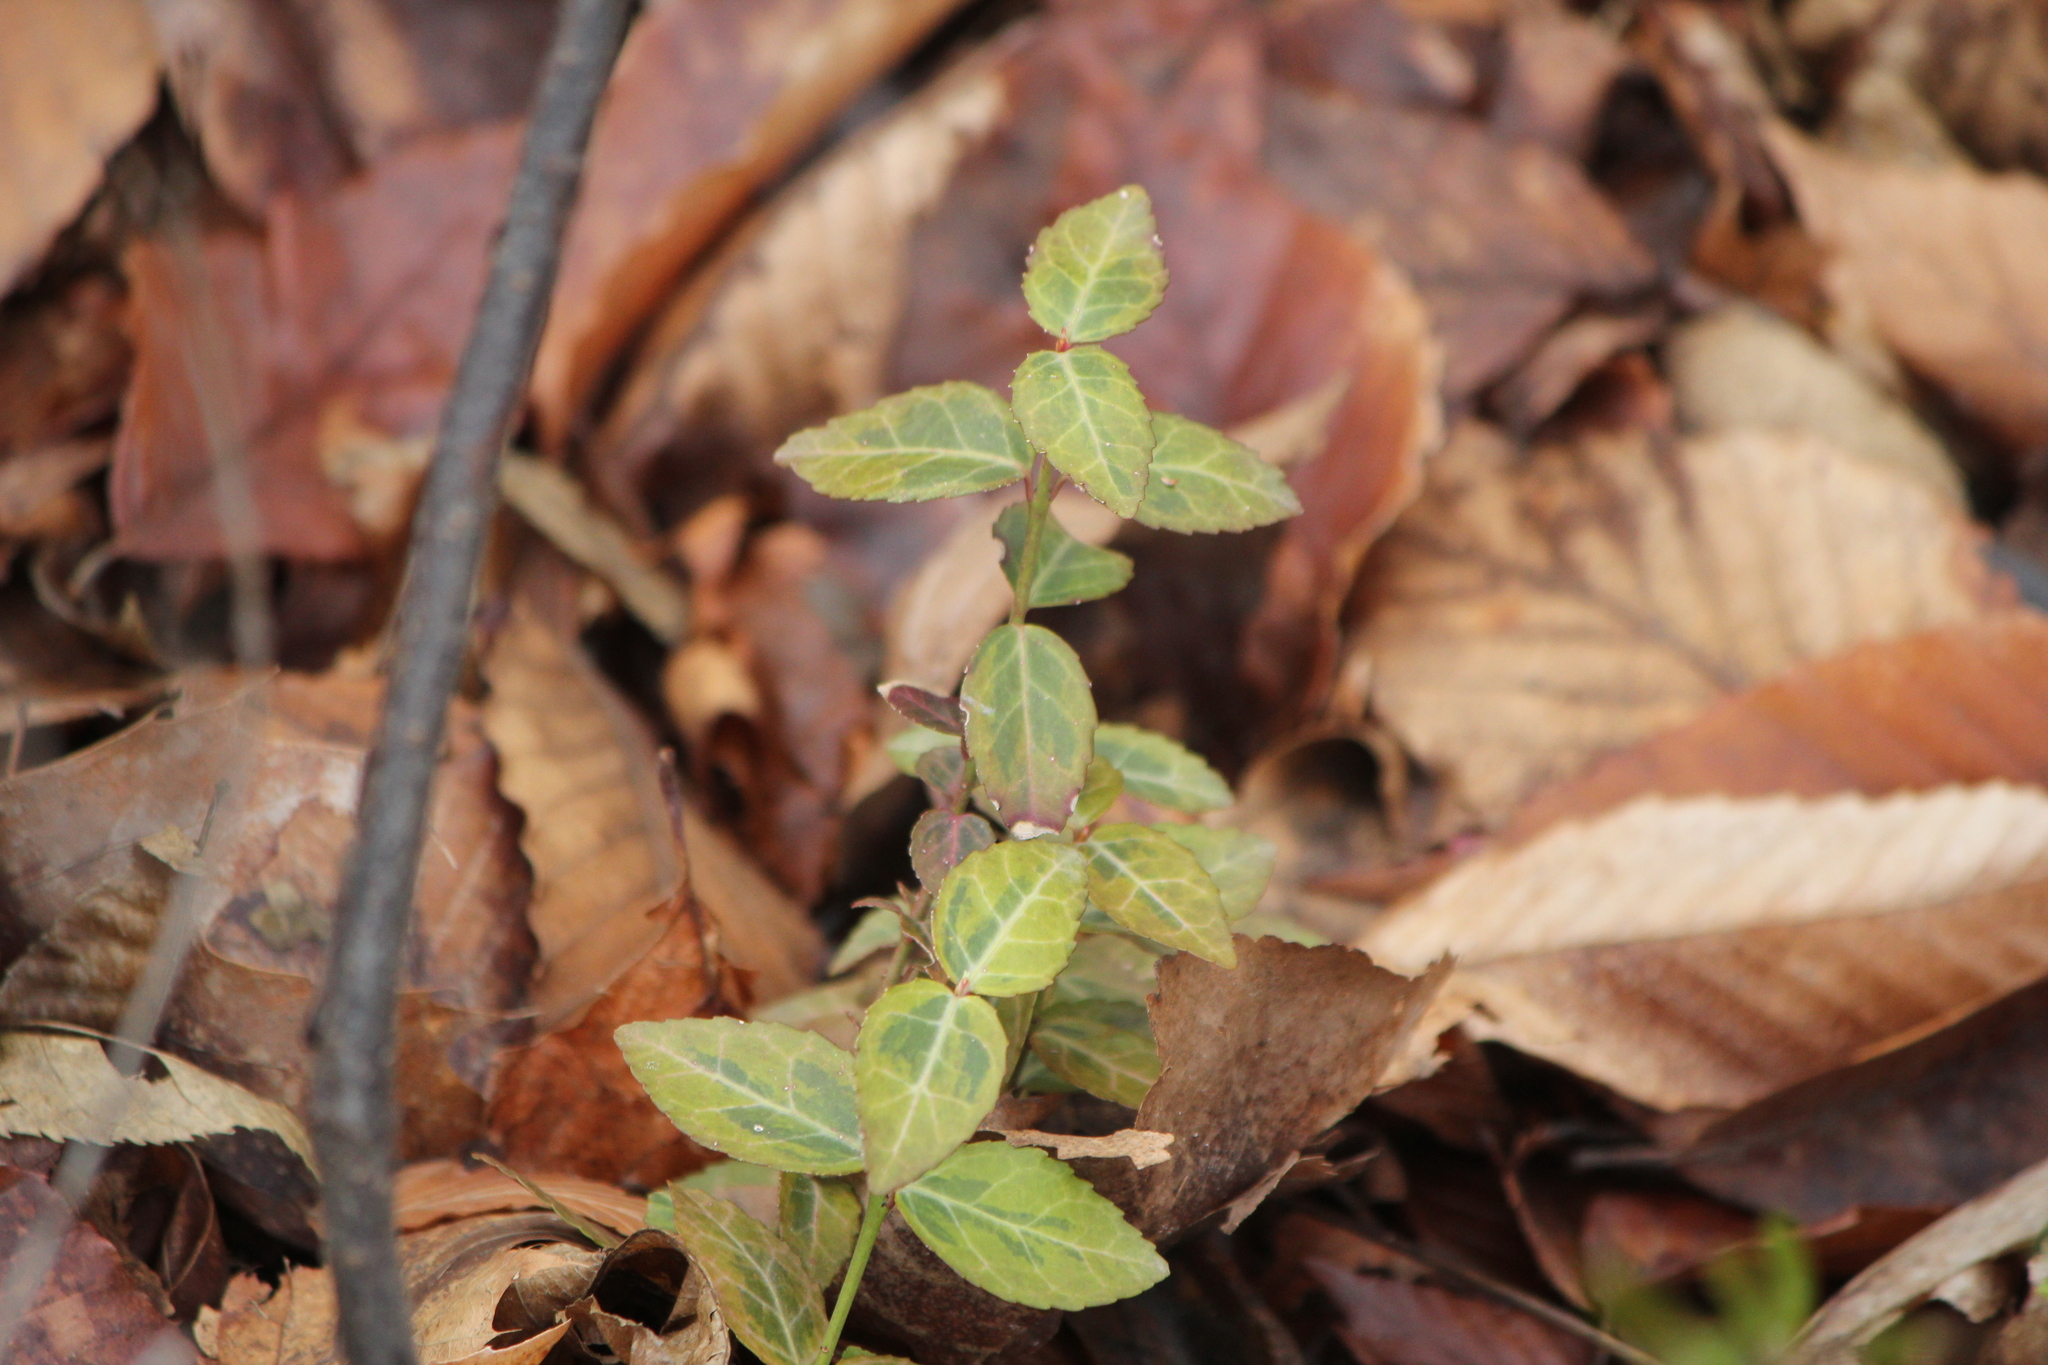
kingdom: Plantae
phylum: Tracheophyta
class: Magnoliopsida
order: Celastrales
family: Celastraceae
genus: Euonymus
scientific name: Euonymus fortunei
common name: Climbing euonymus
